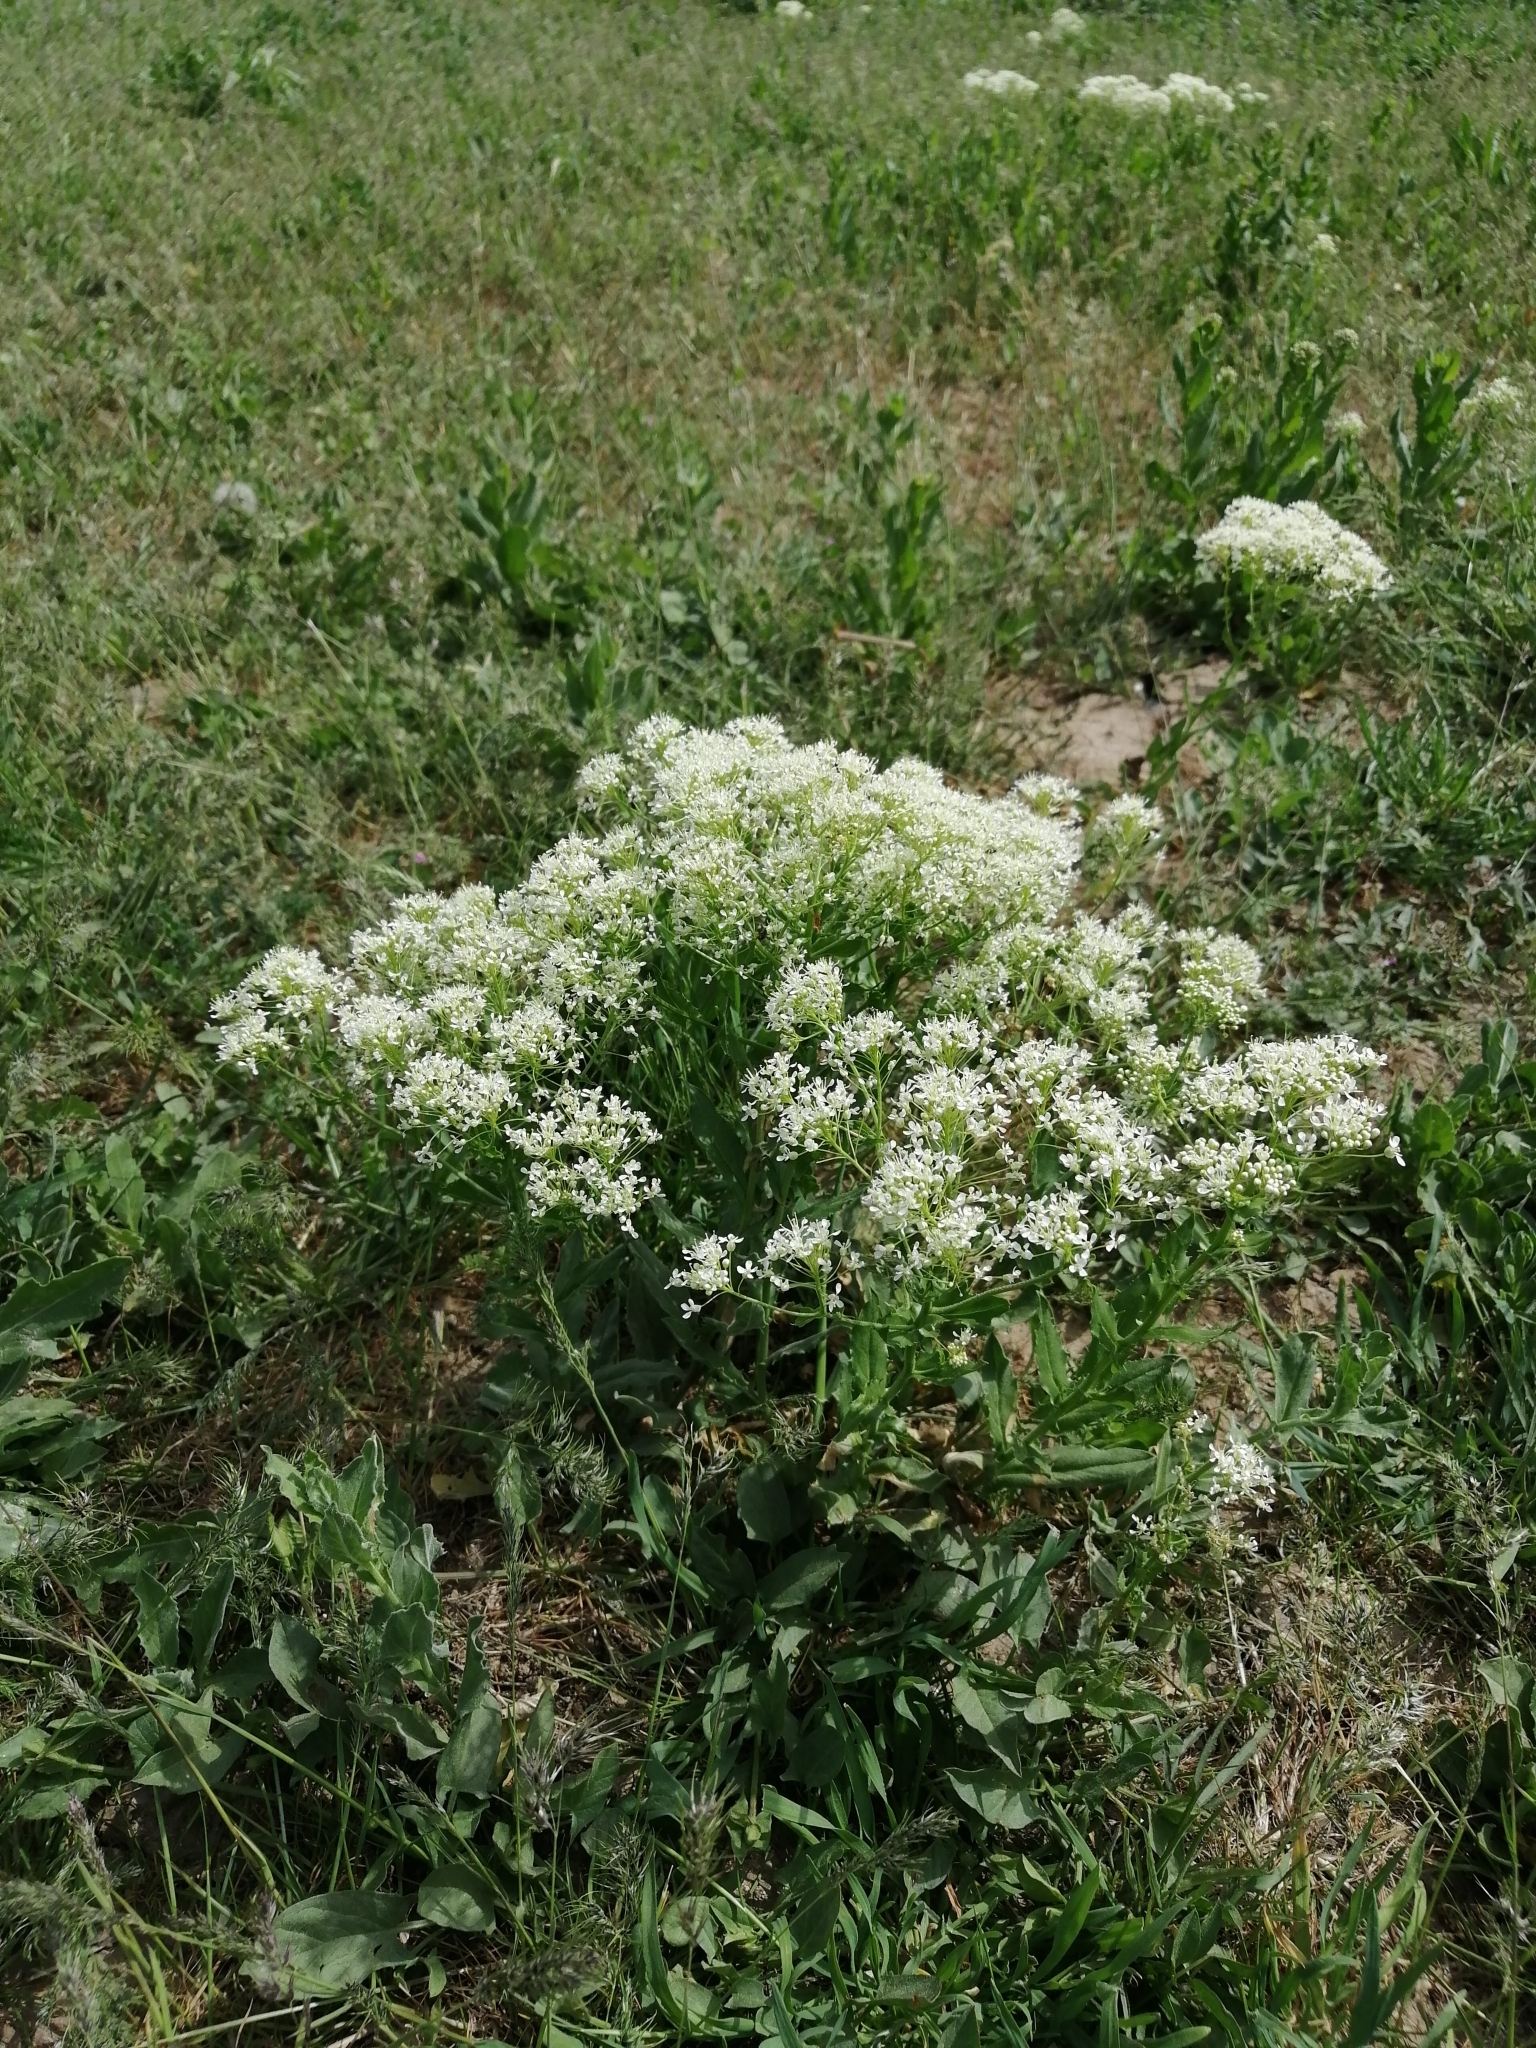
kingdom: Plantae
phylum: Tracheophyta
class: Magnoliopsida
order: Brassicales
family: Brassicaceae
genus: Lepidium
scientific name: Lepidium draba
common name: Hoary cress
